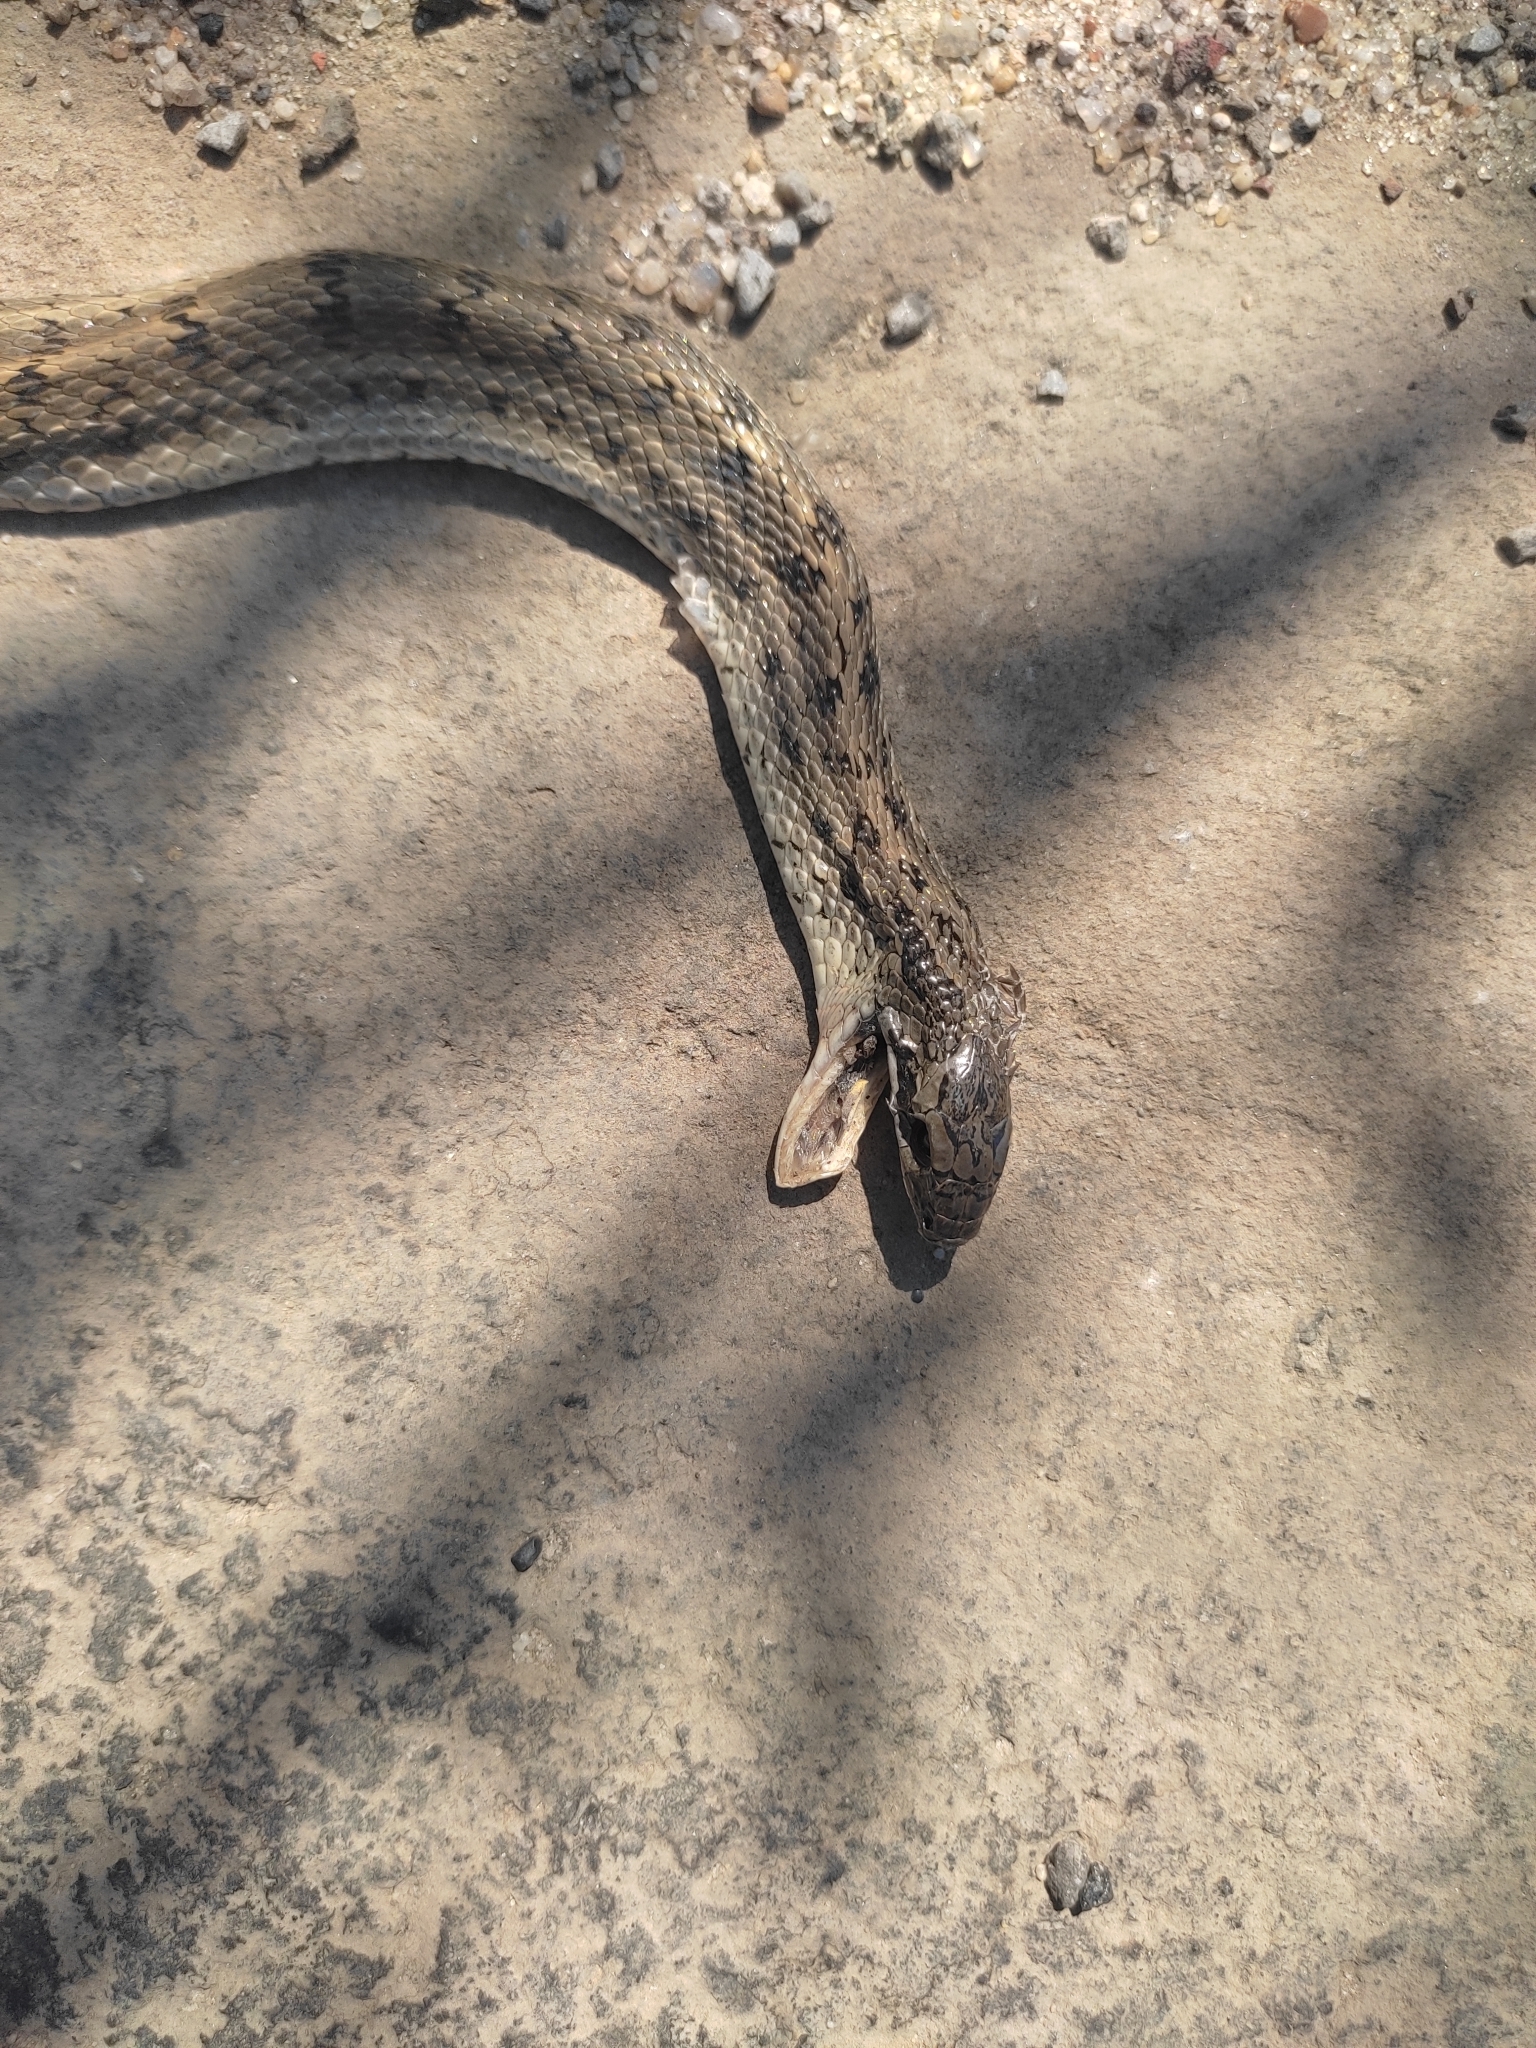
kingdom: Animalia
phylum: Chordata
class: Squamata
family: Colubridae
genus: Elaphe
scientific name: Elaphe dione
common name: Dione ratsnake
